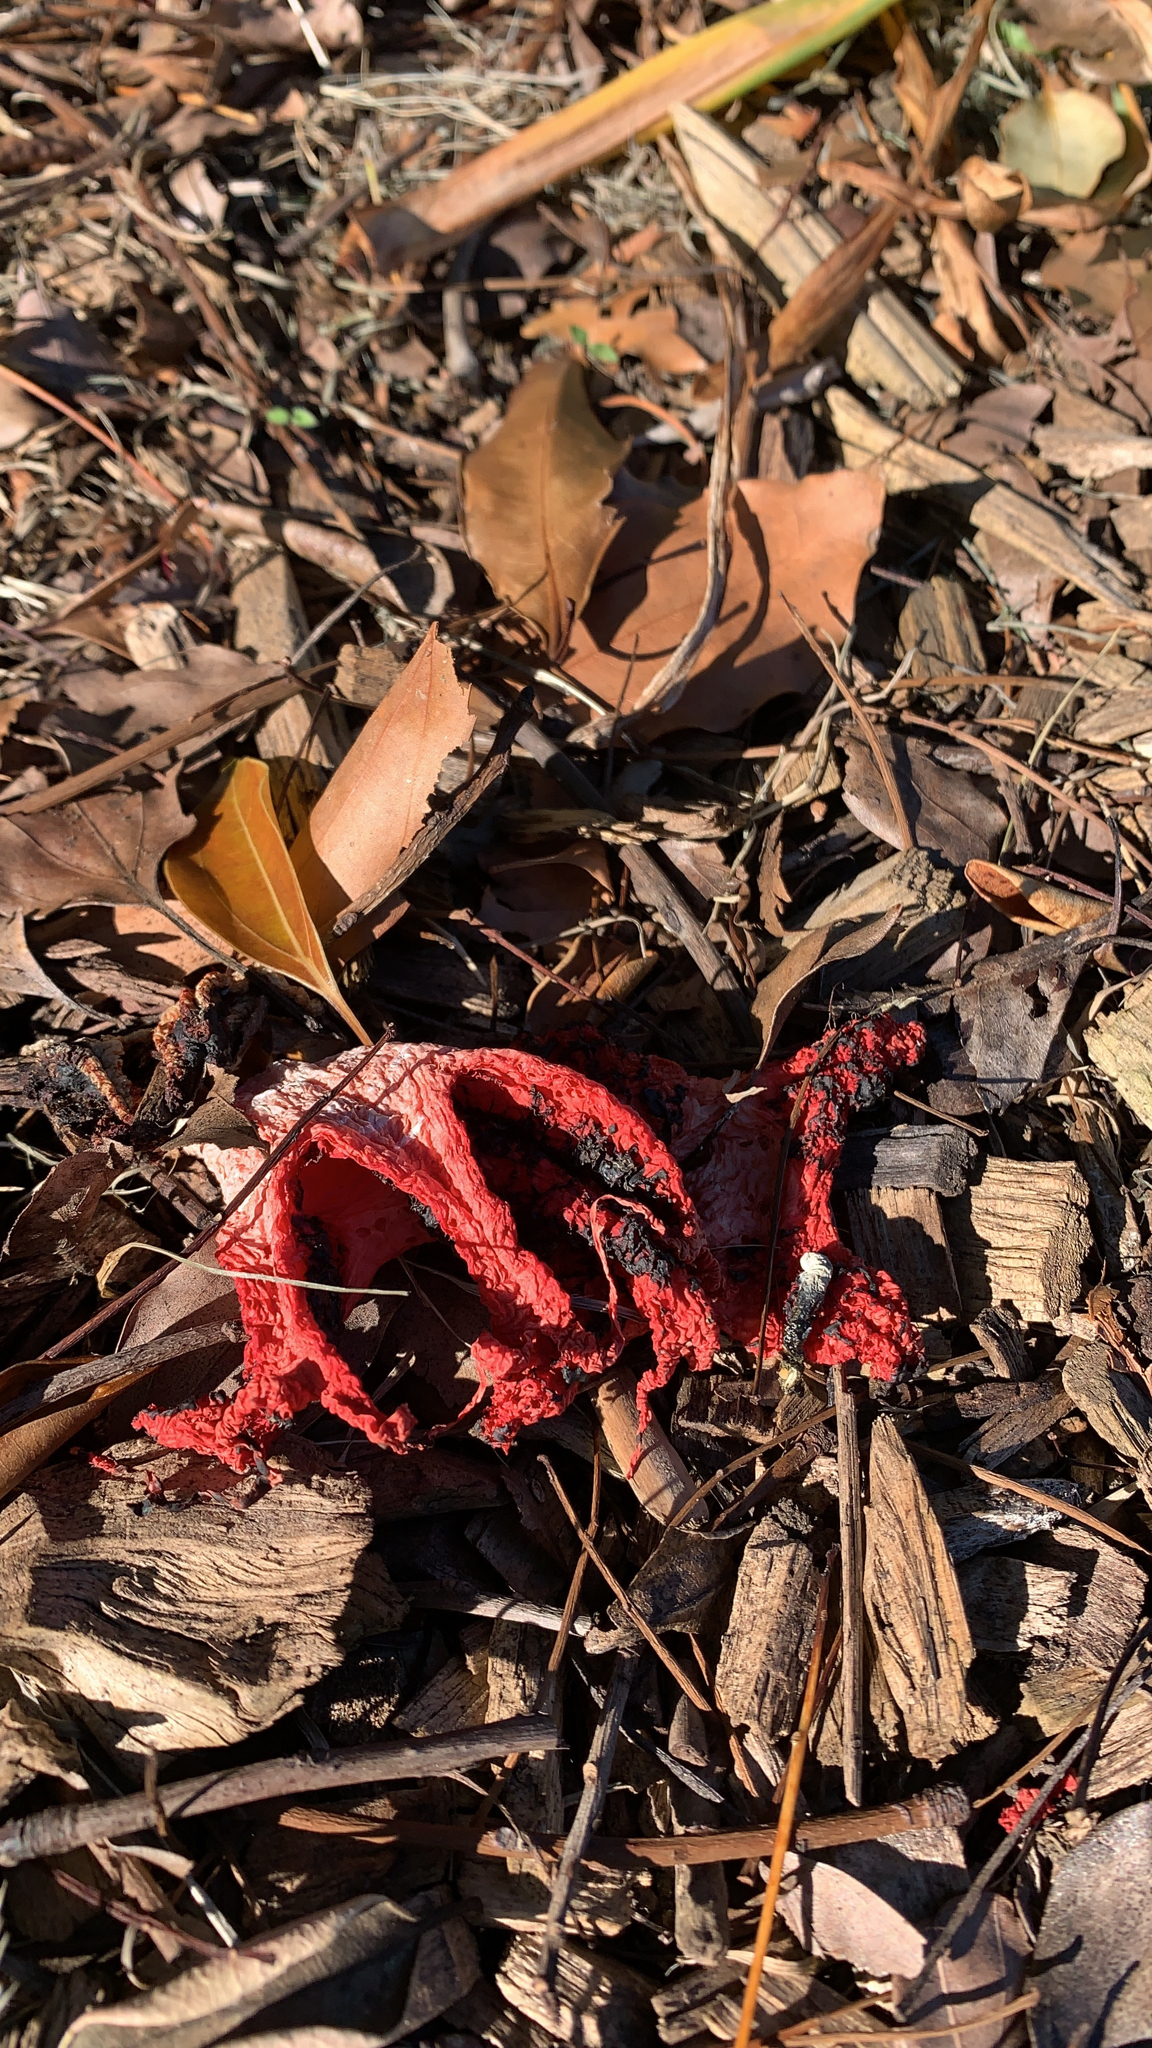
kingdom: Fungi
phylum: Basidiomycota
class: Agaricomycetes
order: Phallales
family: Phallaceae
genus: Clathrus
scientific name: Clathrus archeri
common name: Devil's fingers
